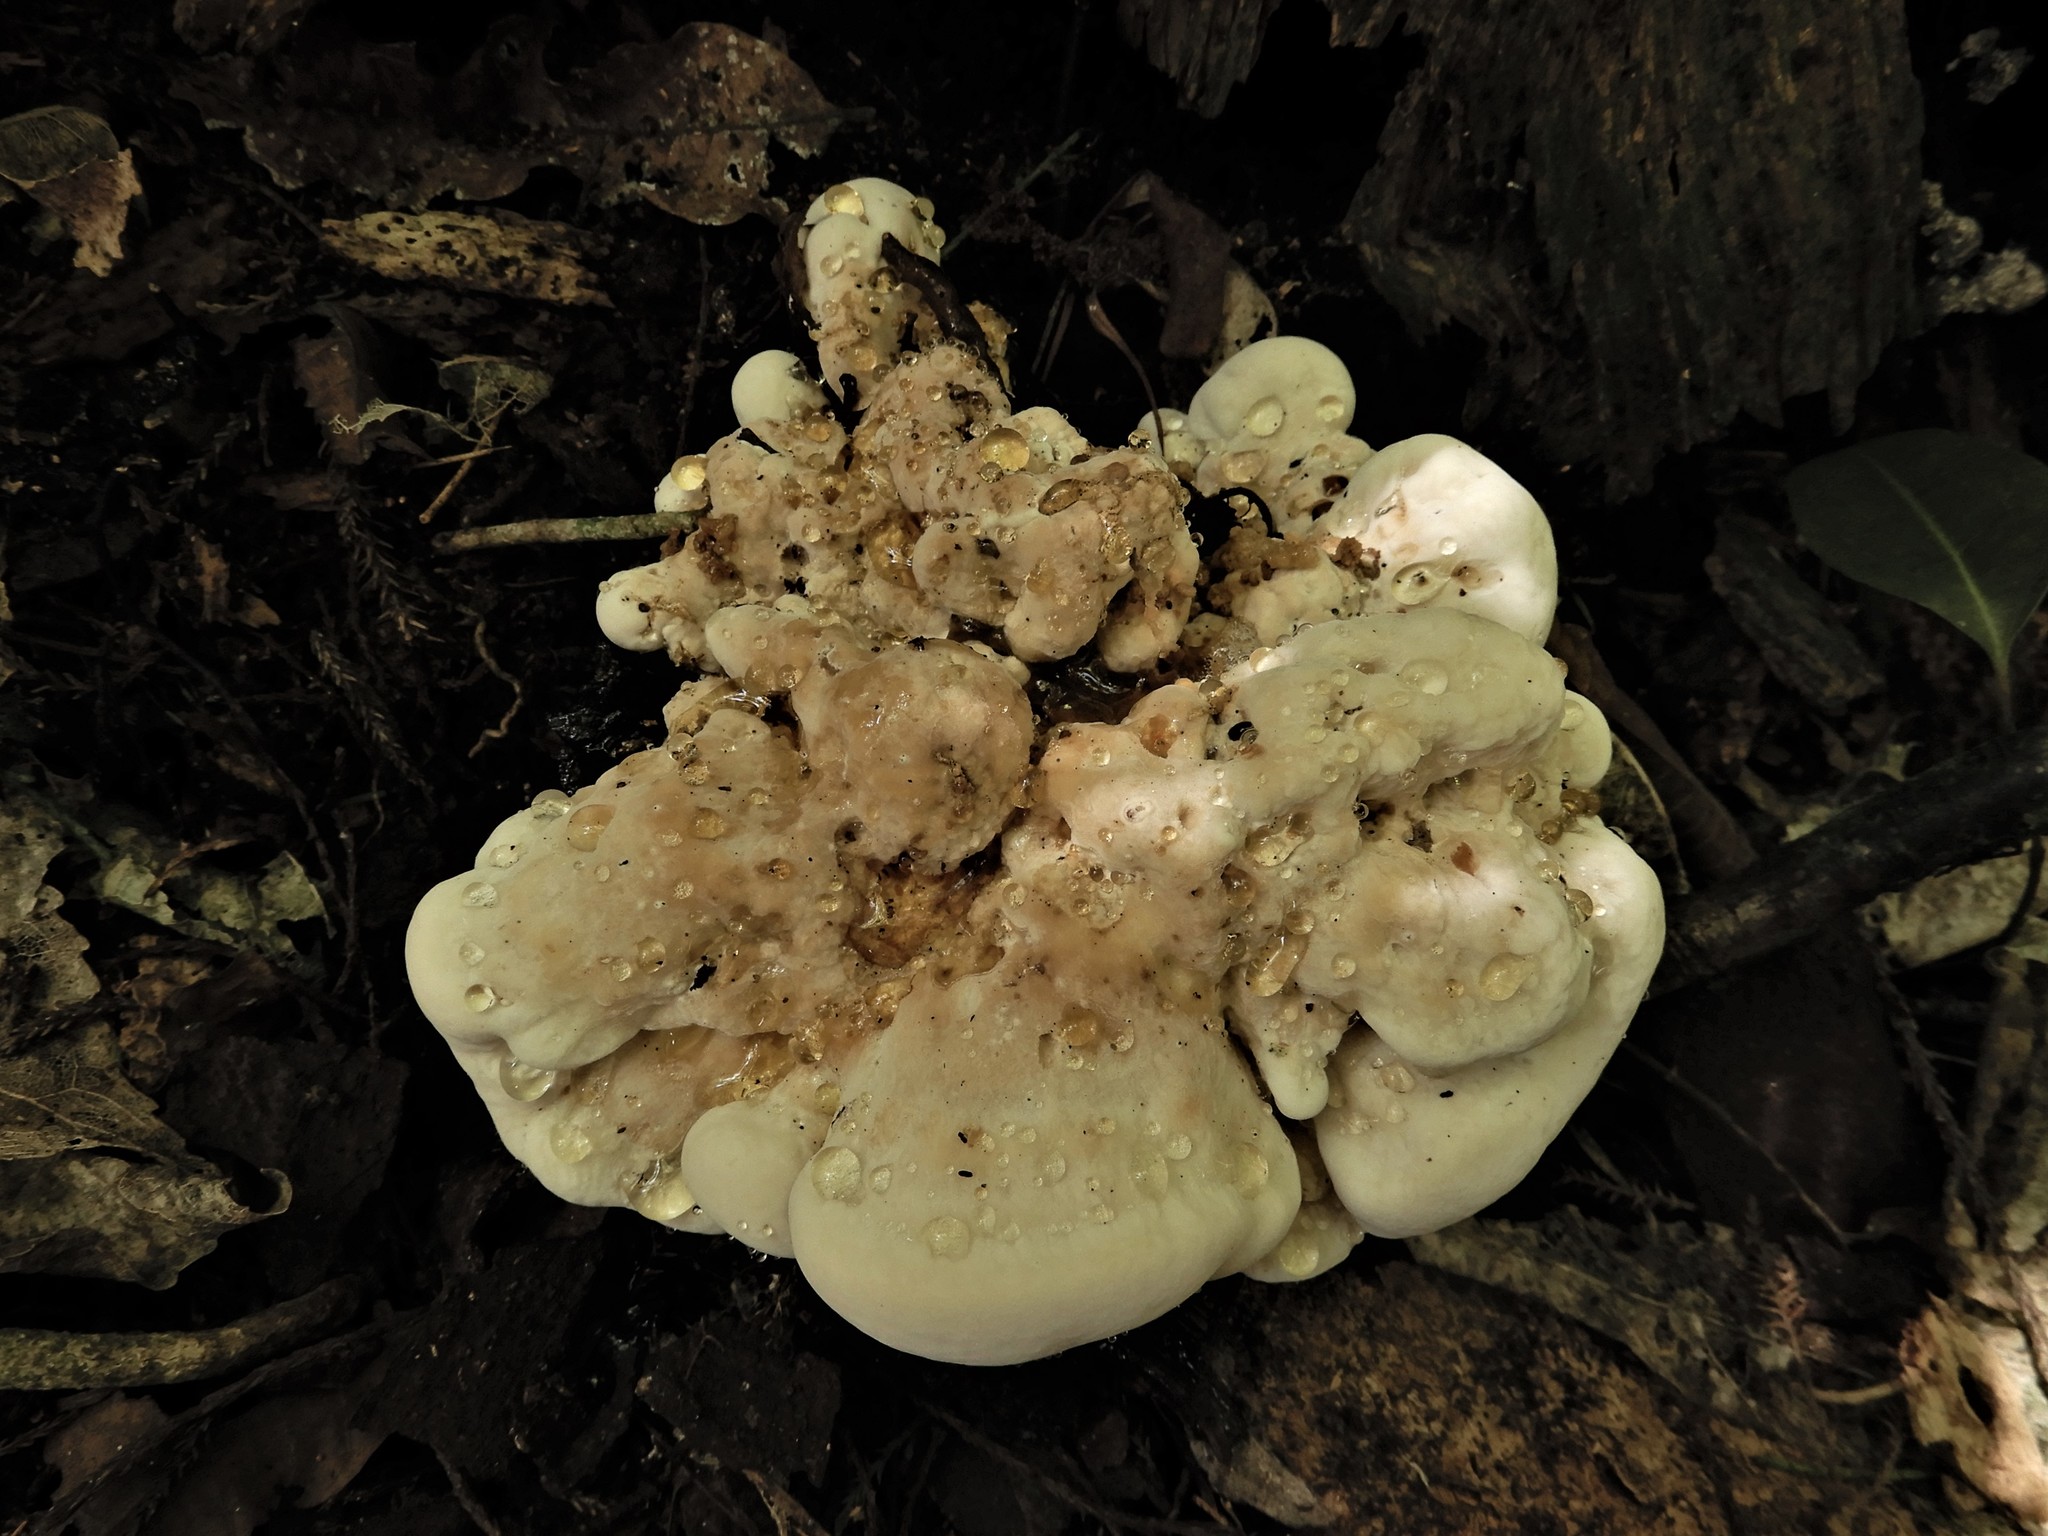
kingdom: Fungi
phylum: Basidiomycota
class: Agaricomycetes
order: Russulales
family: Bondarzewiaceae
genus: Bondarzewia
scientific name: Bondarzewia propria
